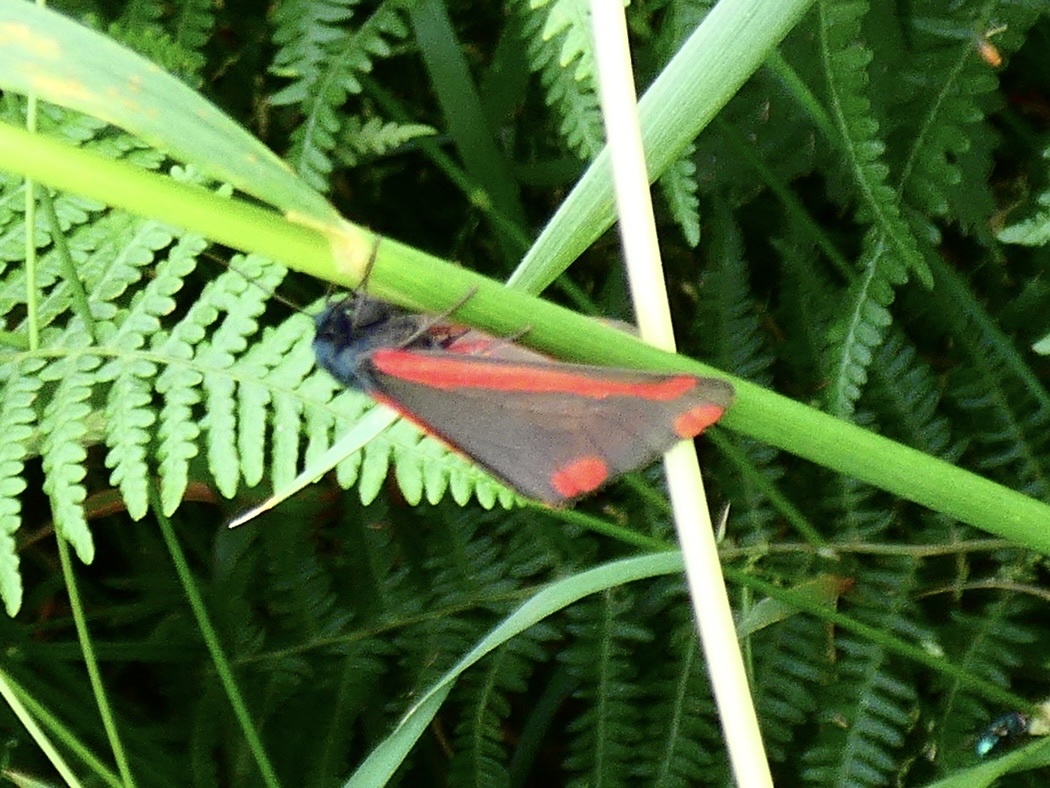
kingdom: Animalia
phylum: Arthropoda
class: Insecta
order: Lepidoptera
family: Erebidae
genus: Tyria
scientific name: Tyria jacobaeae
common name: Cinnabar
